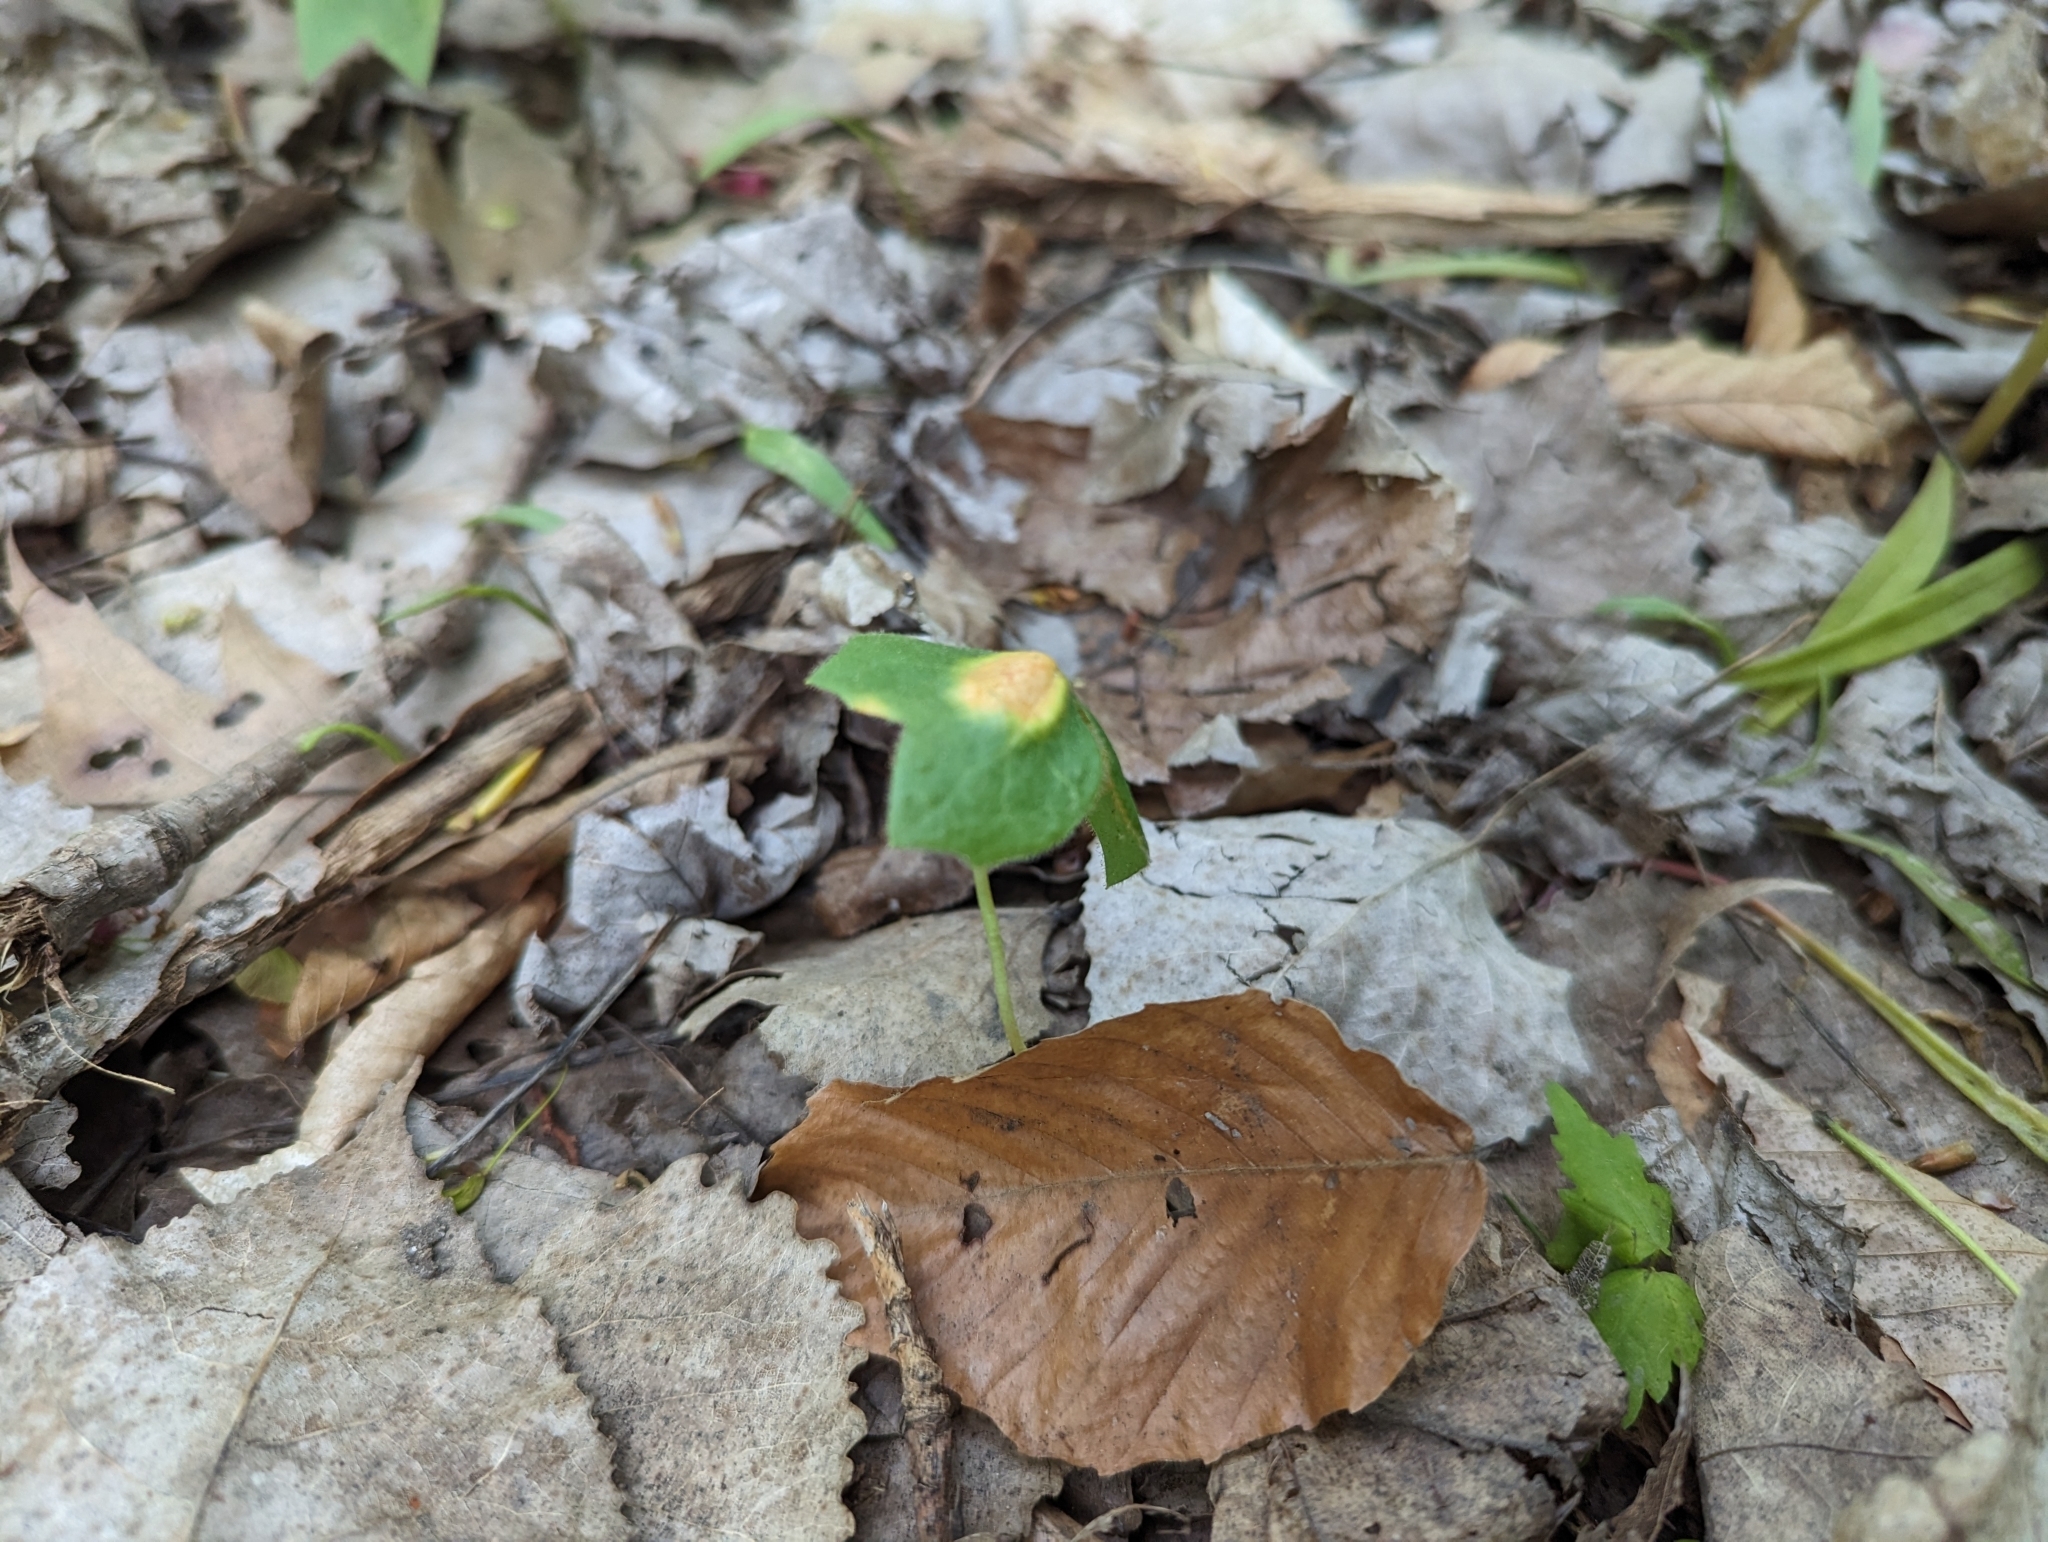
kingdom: Plantae
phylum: Tracheophyta
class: Magnoliopsida
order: Ranunculales
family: Berberidaceae
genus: Podophyllum
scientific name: Podophyllum peltatum
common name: Wild mandrake
